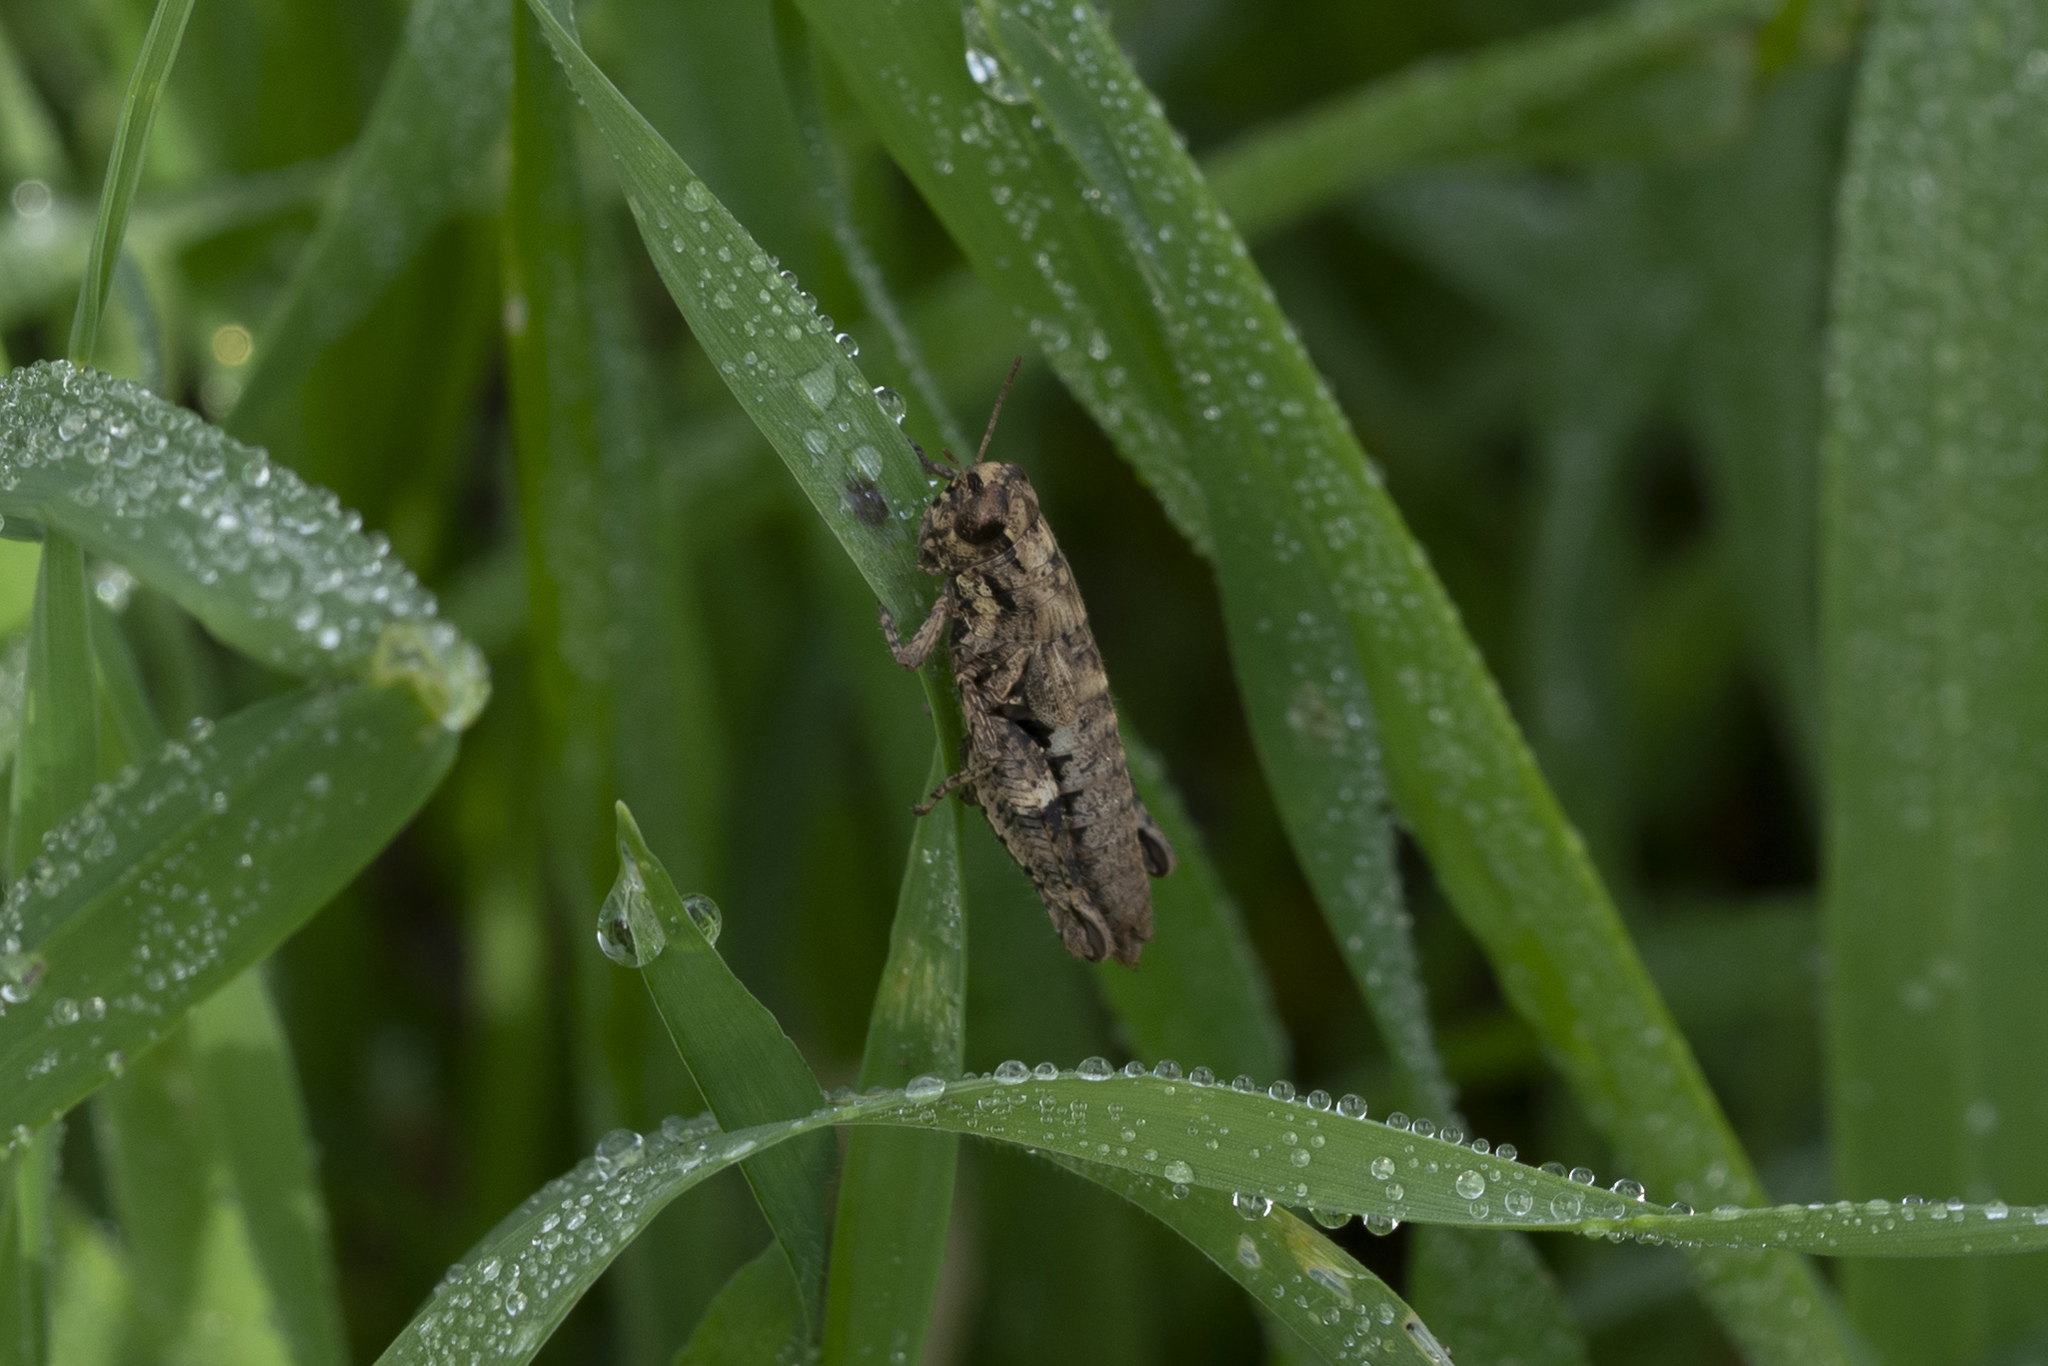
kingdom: Animalia
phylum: Arthropoda
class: Insecta
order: Orthoptera
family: Acrididae
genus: Pezotettix
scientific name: Pezotettix lagoi
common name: Rhodes maquis grasshopper
